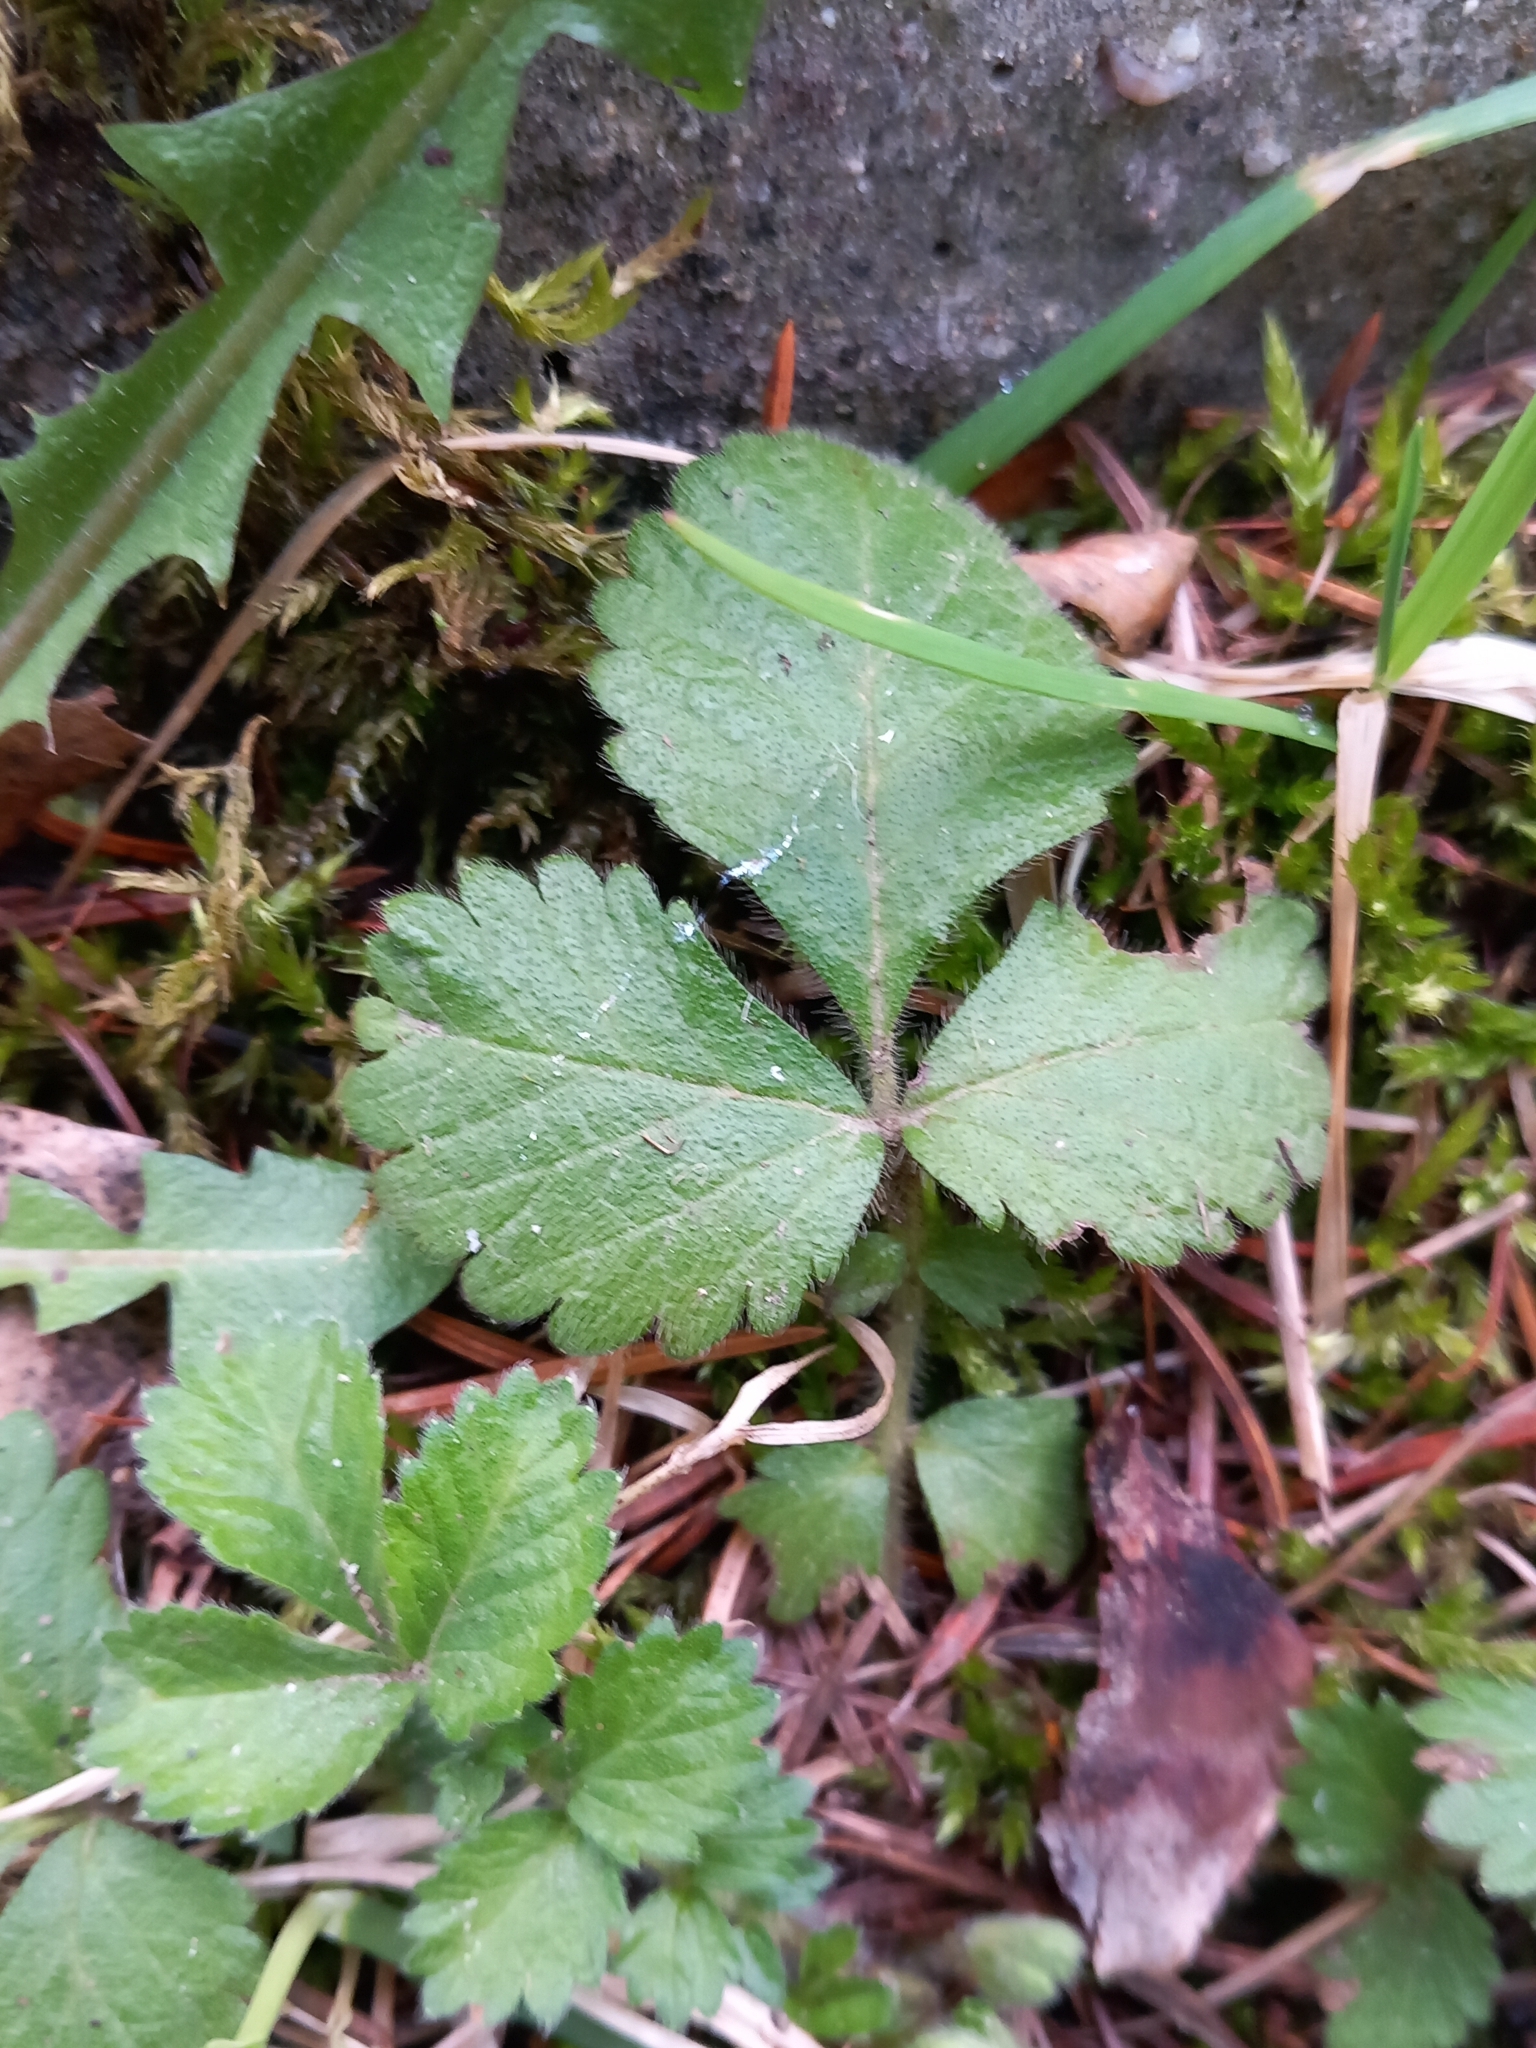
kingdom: Plantae
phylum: Tracheophyta
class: Magnoliopsida
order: Rosales
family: Rosaceae
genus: Aremonia
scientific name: Aremonia agrimonoides
